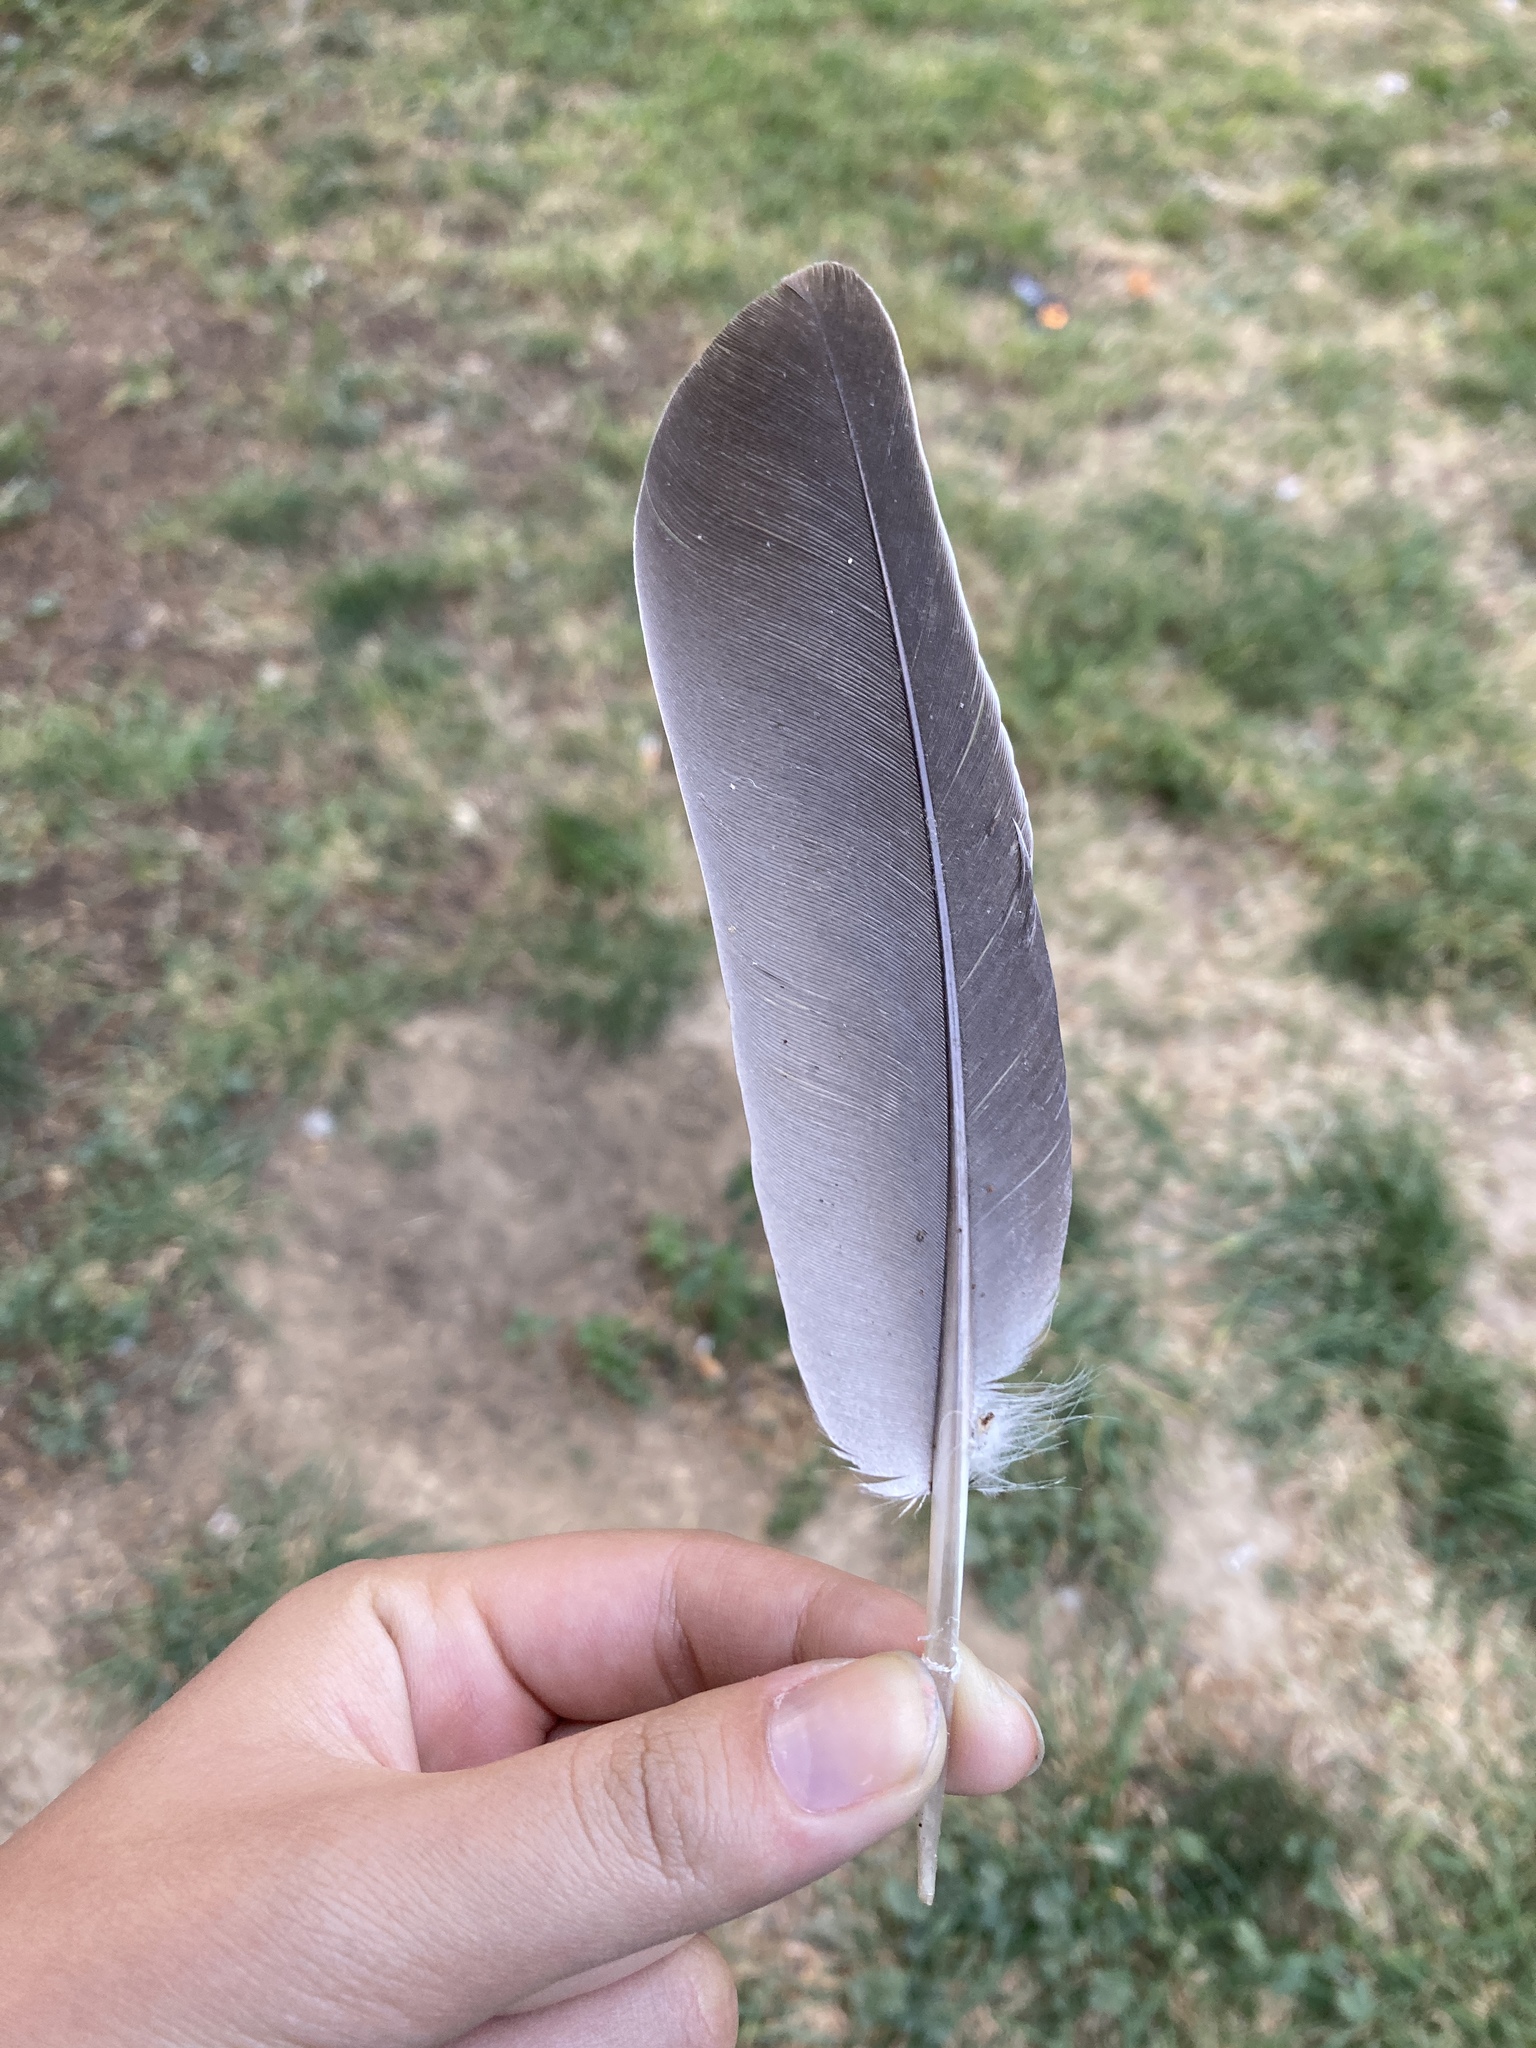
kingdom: Animalia
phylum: Chordata
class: Aves
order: Columbiformes
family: Columbidae
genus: Columba
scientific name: Columba palumbus
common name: Common wood pigeon
